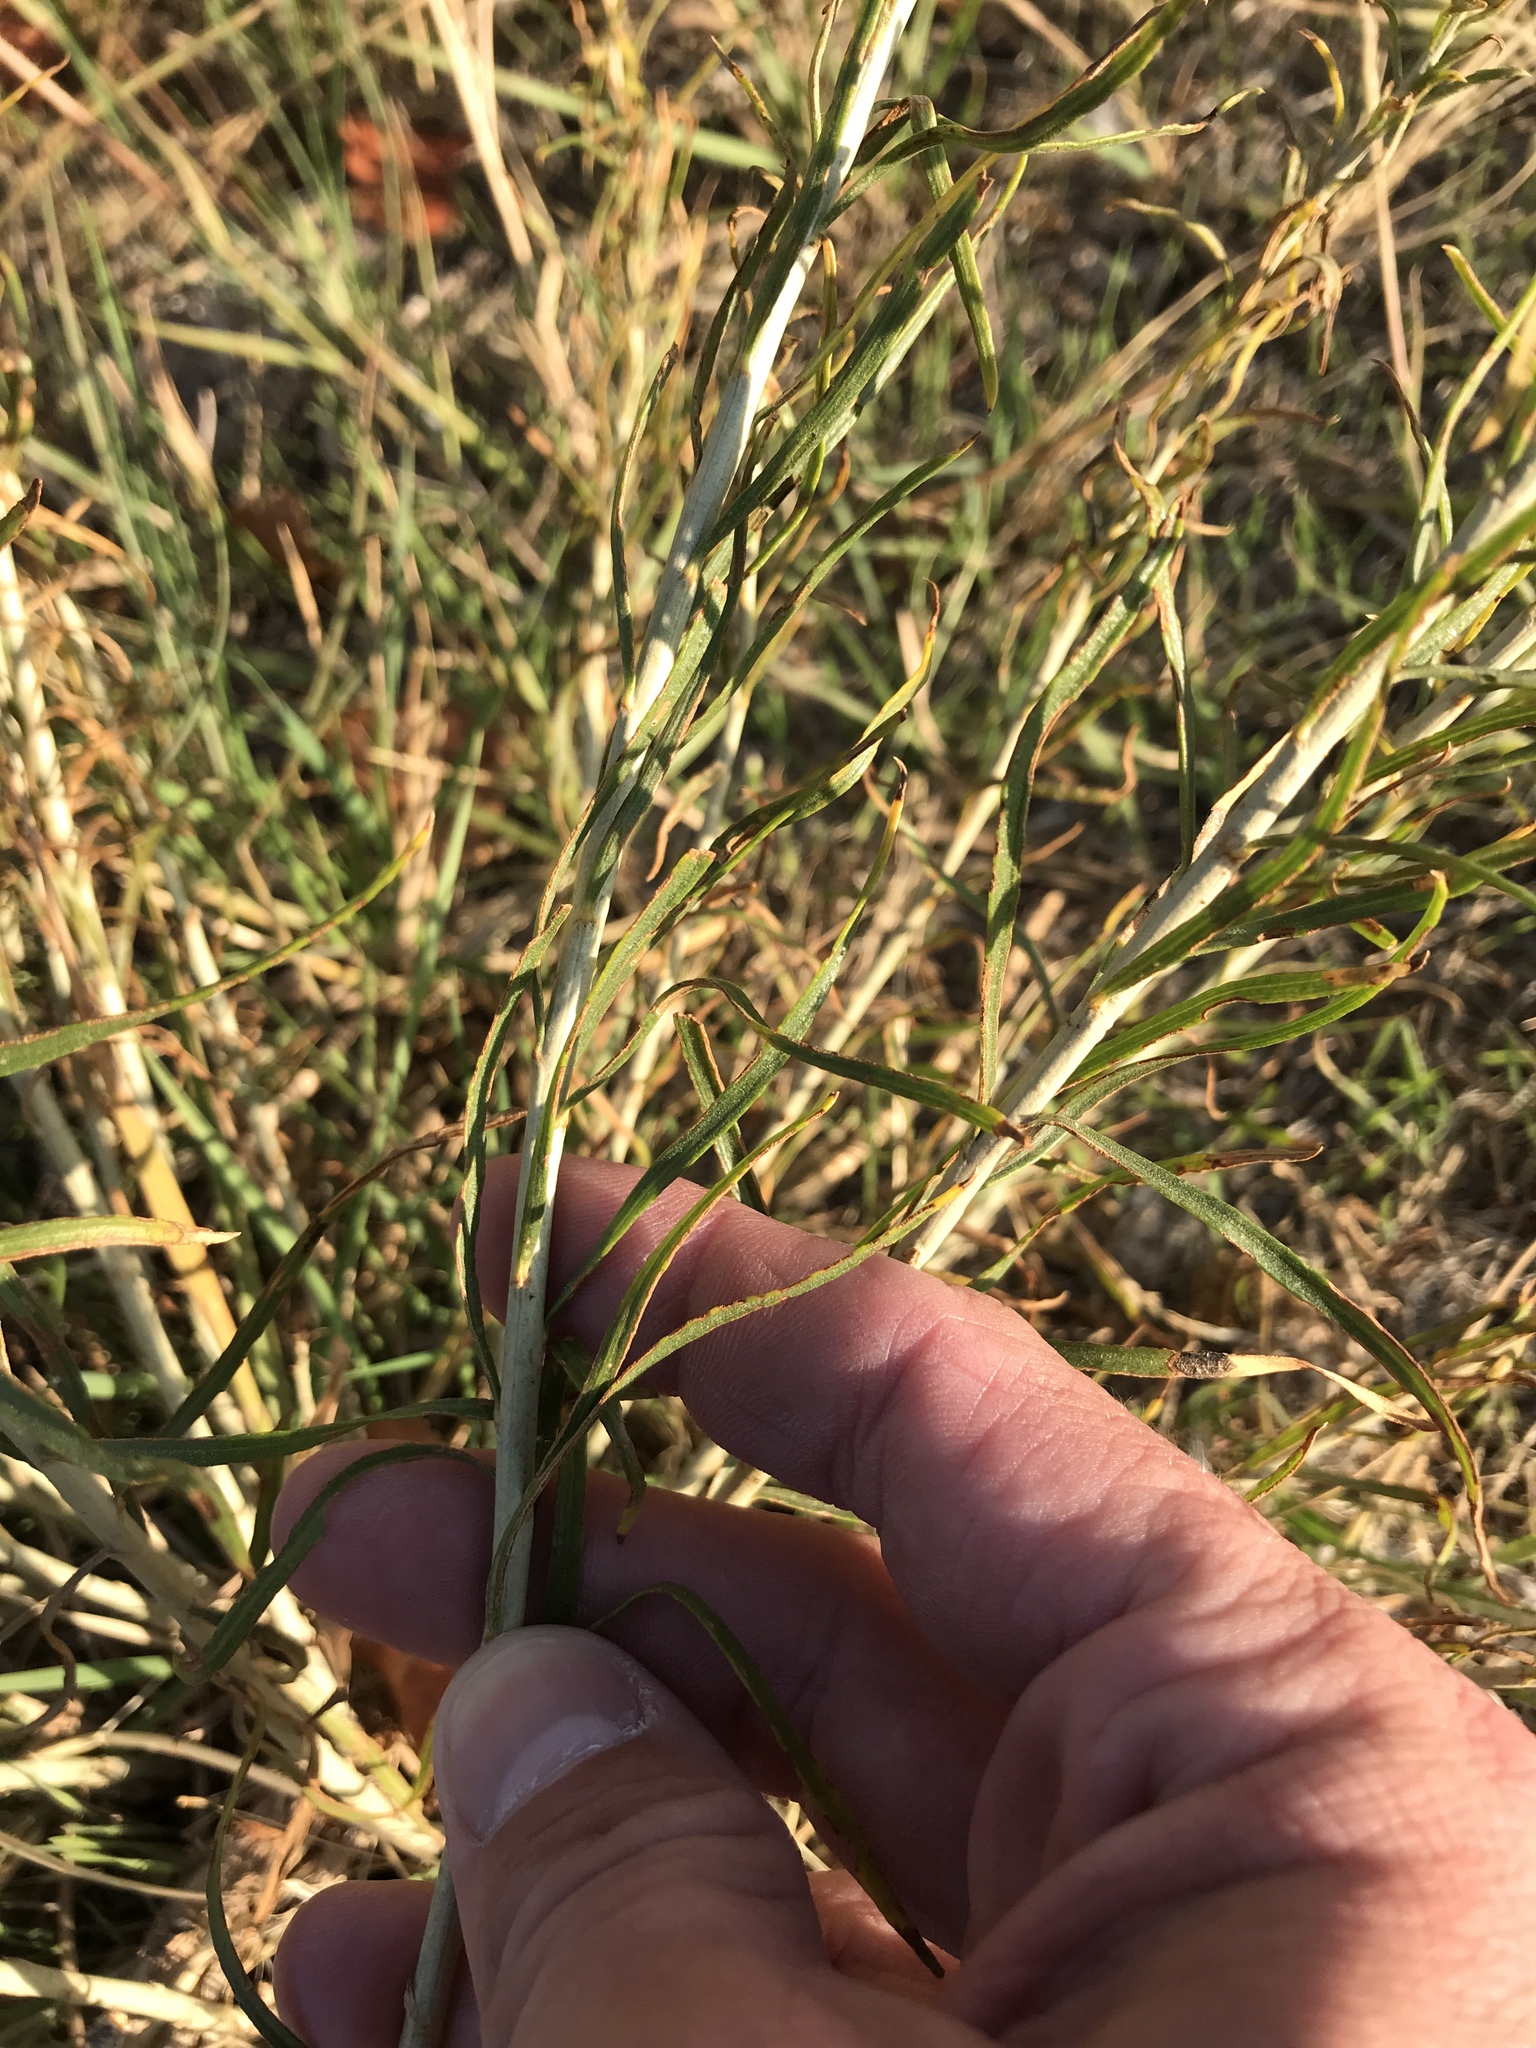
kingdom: Plantae
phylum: Tracheophyta
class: Magnoliopsida
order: Asterales
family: Asteraceae
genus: Ericameria
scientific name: Ericameria nauseosa
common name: Rubber rabbitbrush
